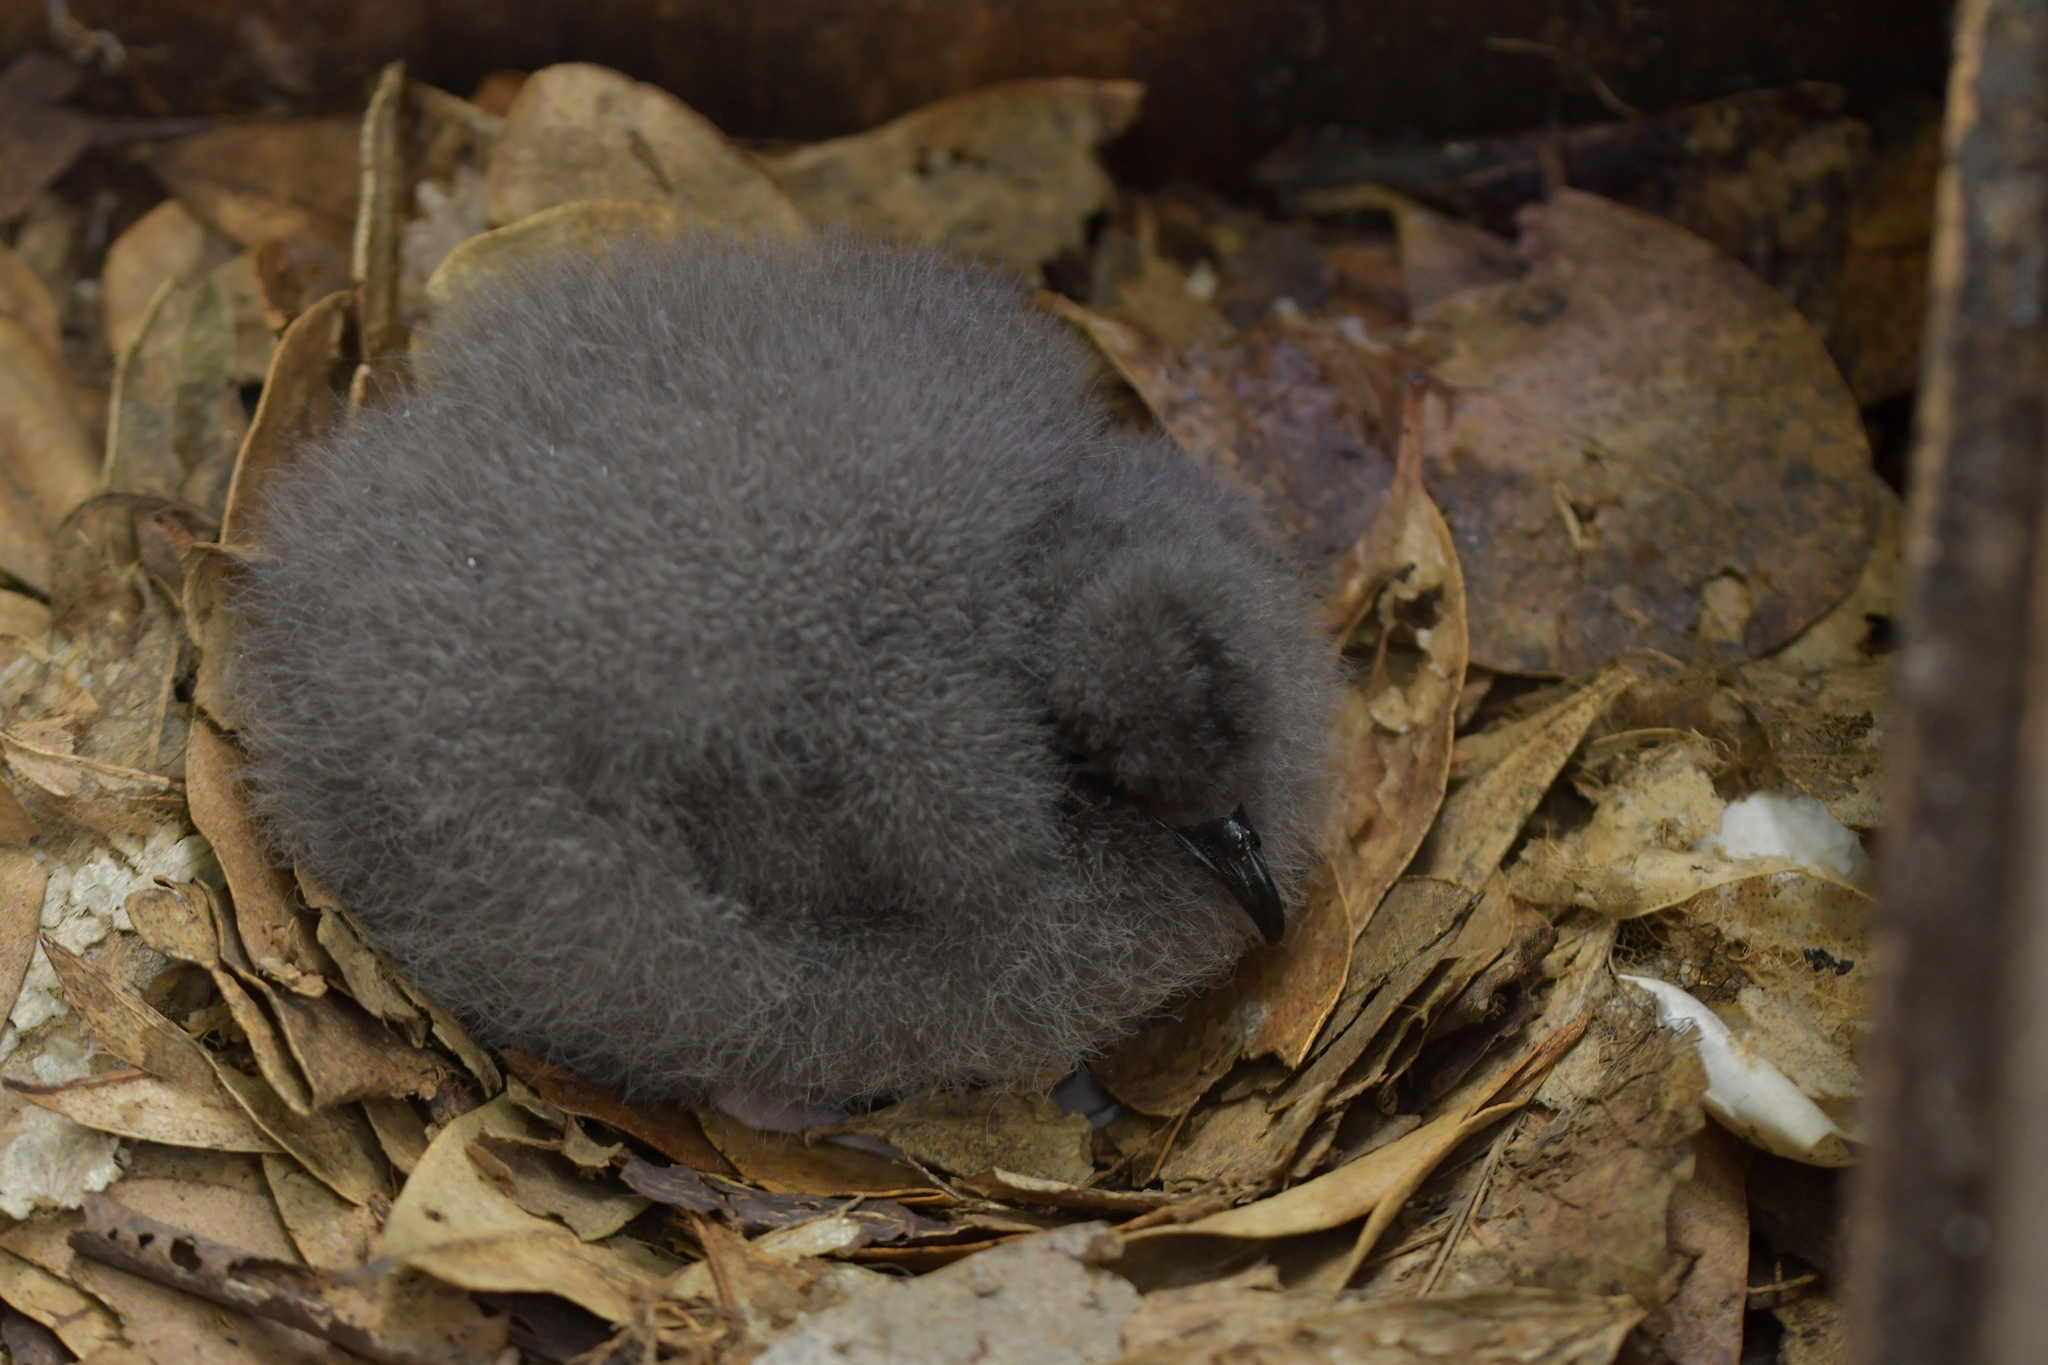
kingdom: Animalia
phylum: Chordata
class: Aves
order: Procellariiformes
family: Procellariidae
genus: Pterodroma
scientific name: Pterodroma axillaris
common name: Chatham petrel
